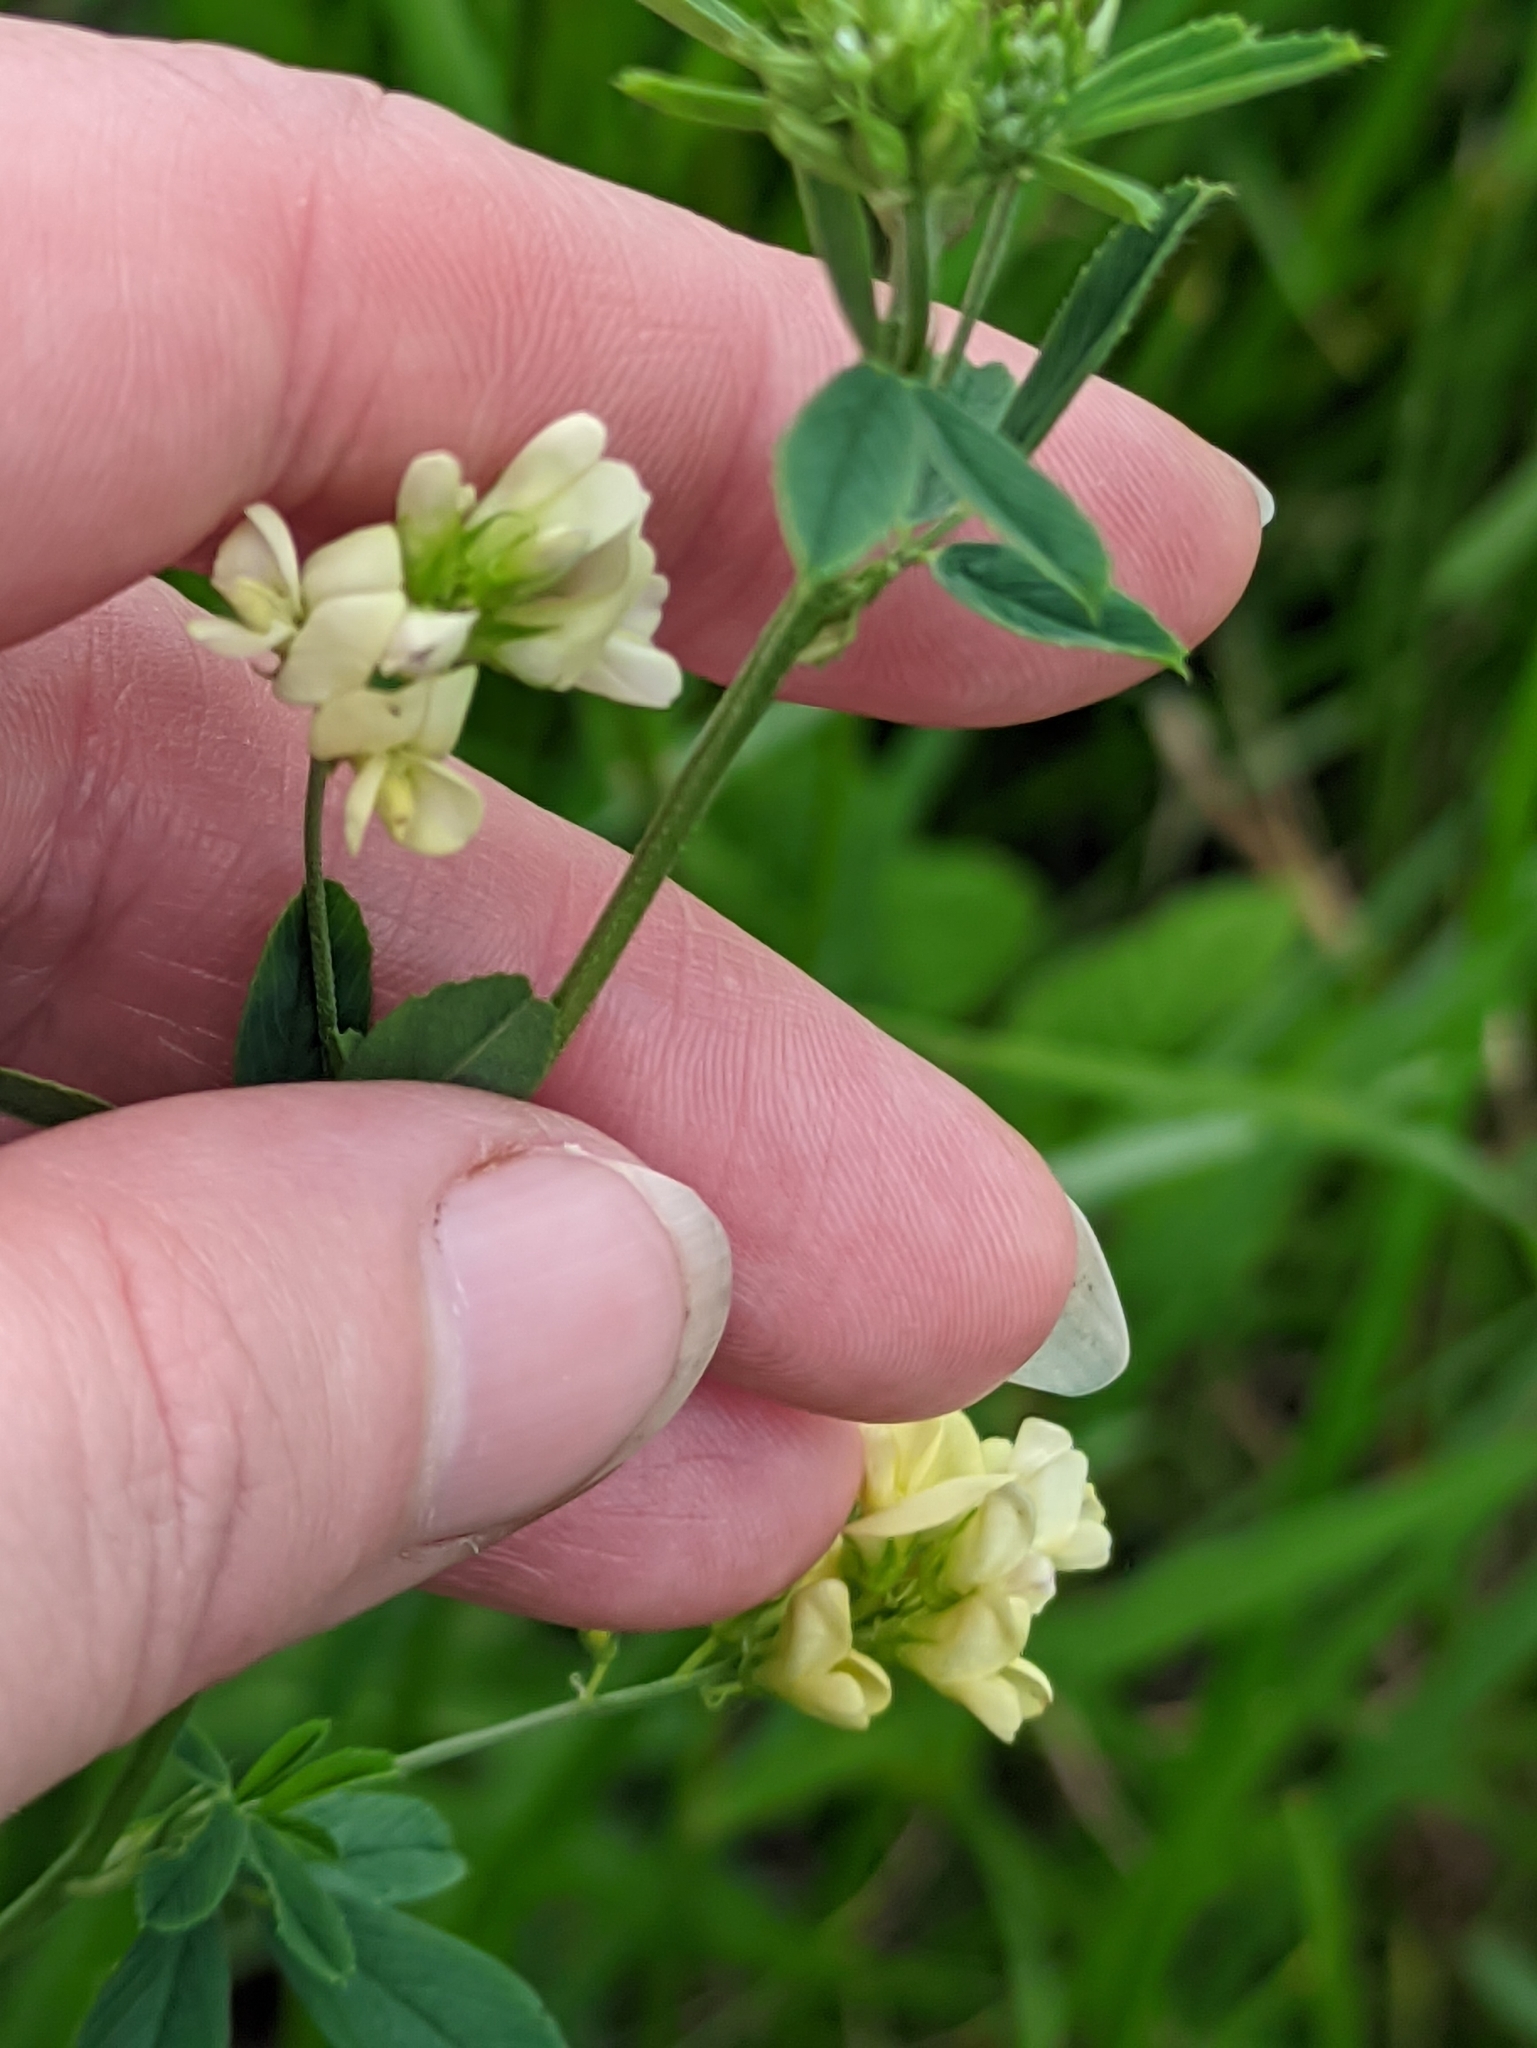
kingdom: Plantae
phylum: Tracheophyta
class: Magnoliopsida
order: Fabales
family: Fabaceae
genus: Medicago
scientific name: Medicago falcata
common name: Sickle medick
